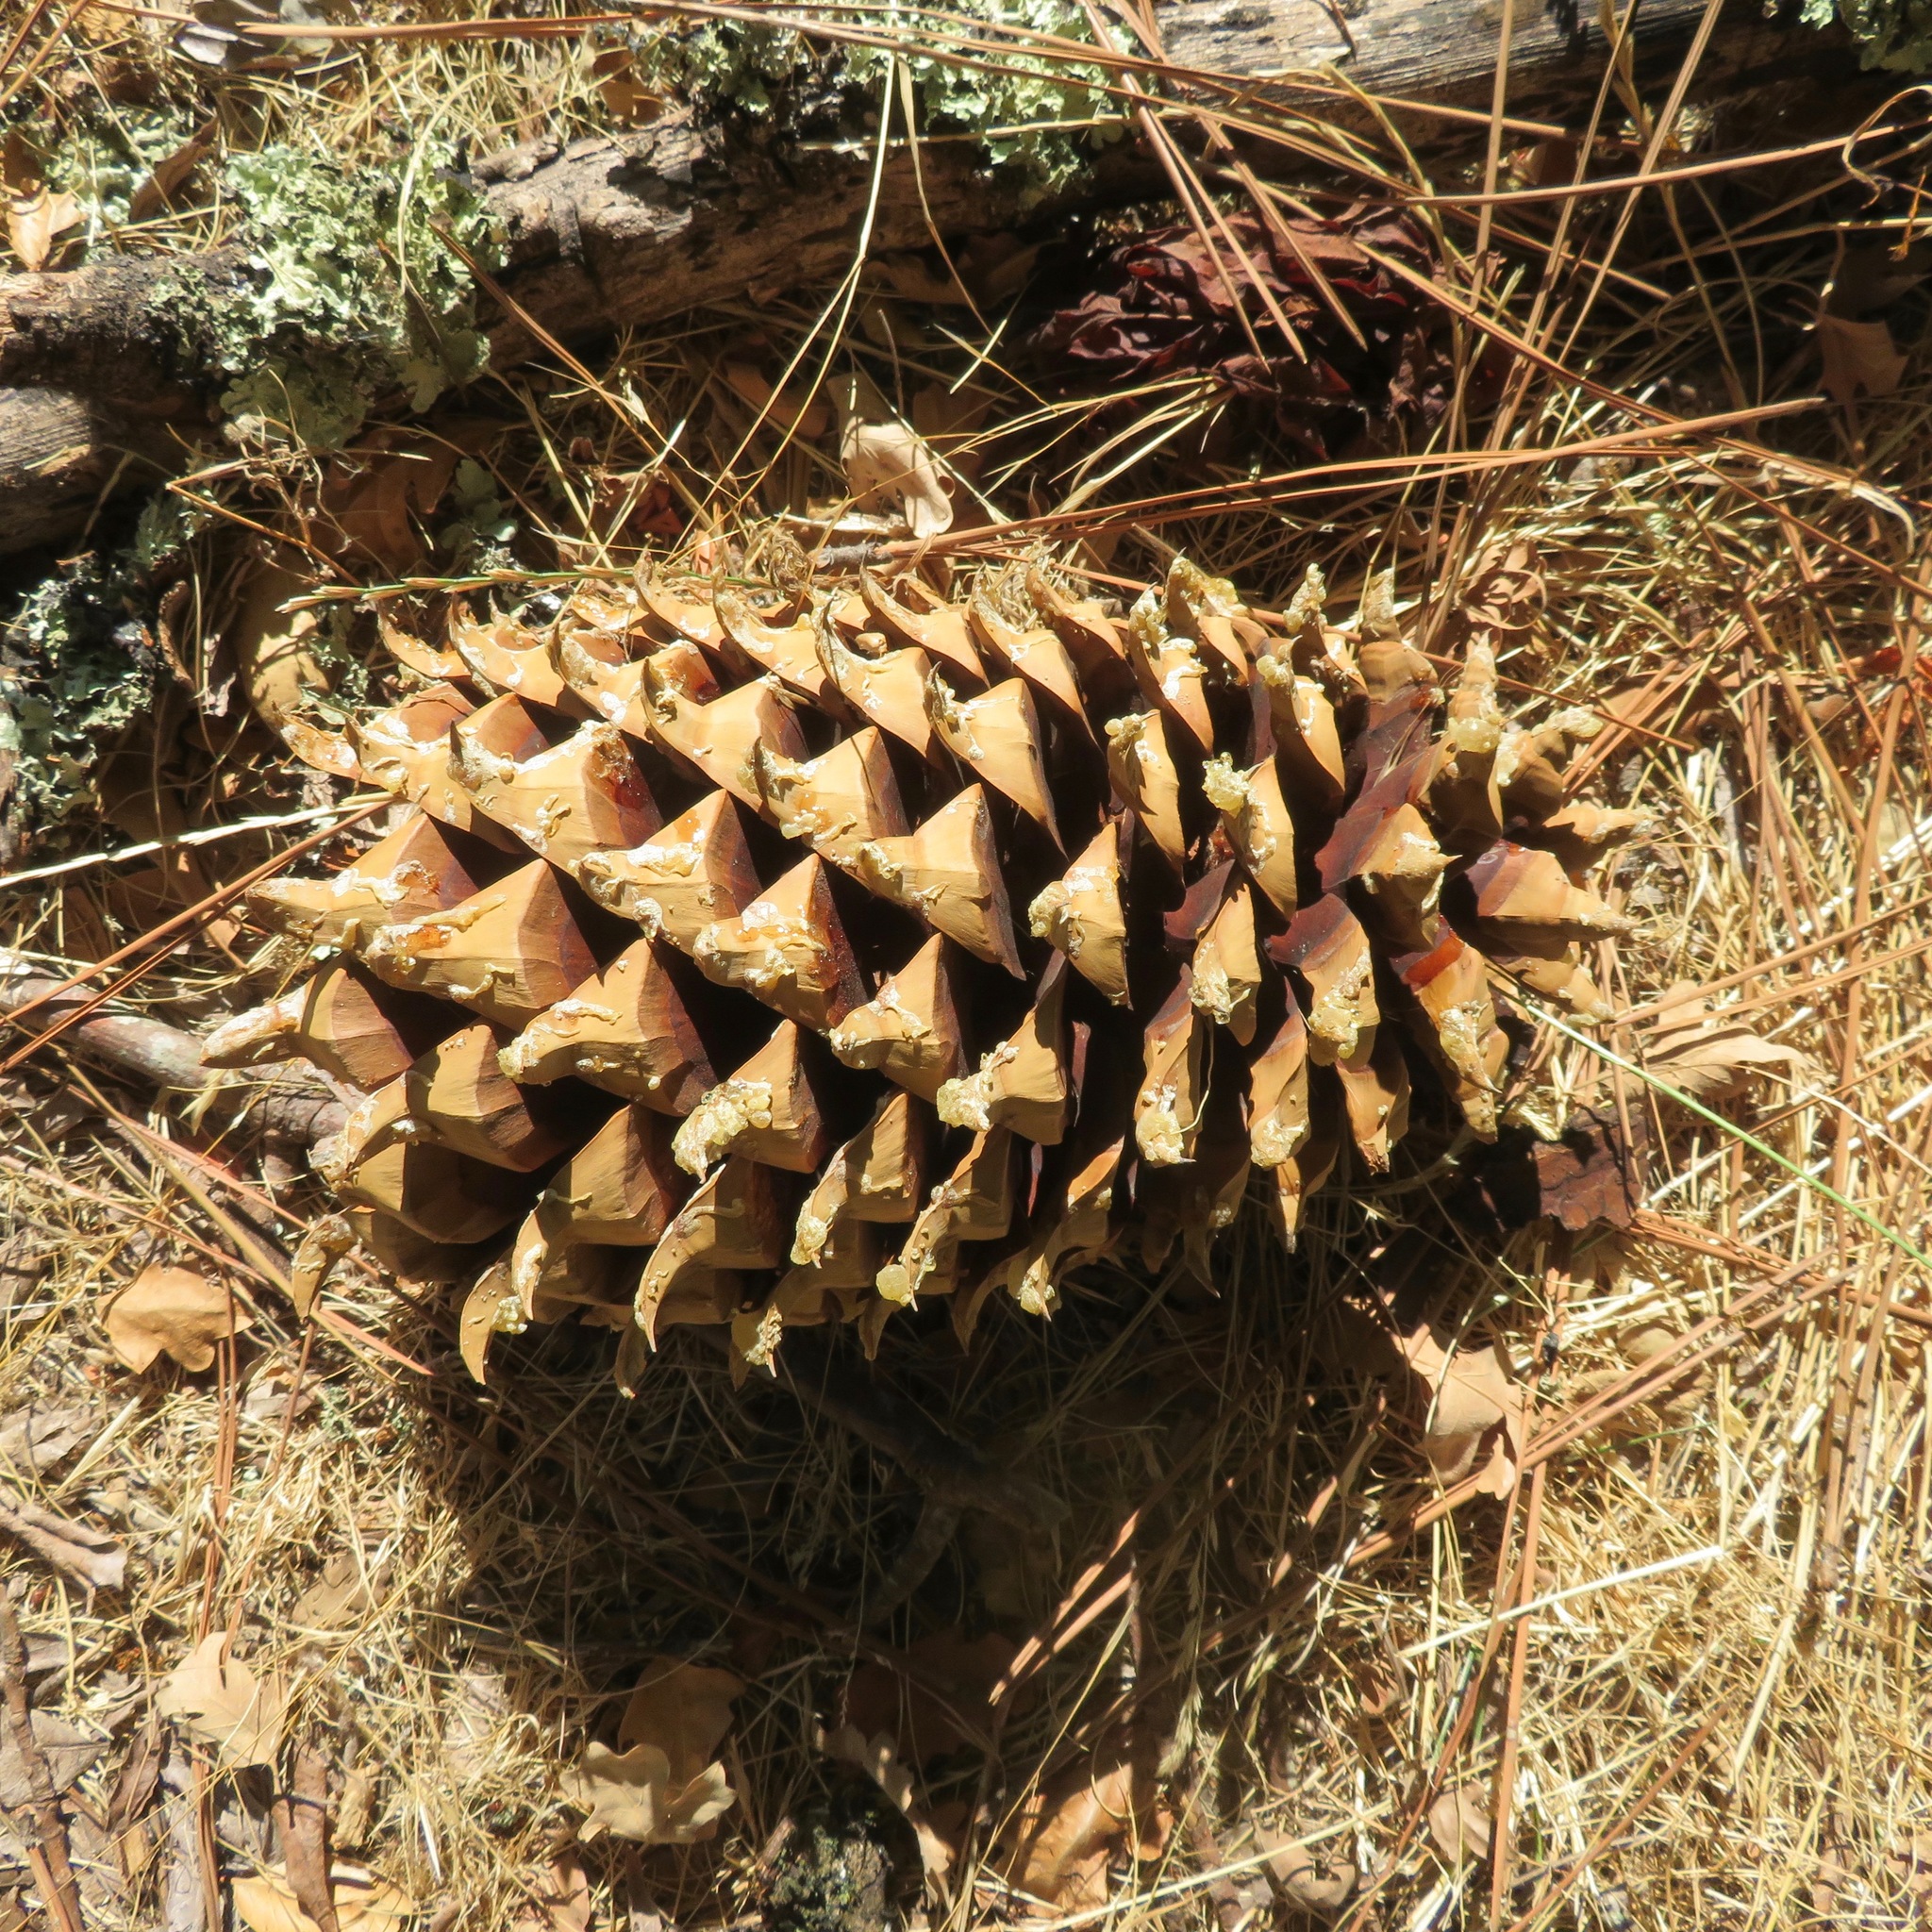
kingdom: Plantae
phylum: Tracheophyta
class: Pinopsida
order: Pinales
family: Pinaceae
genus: Pinus
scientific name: Pinus sabiniana
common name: Bull pine
